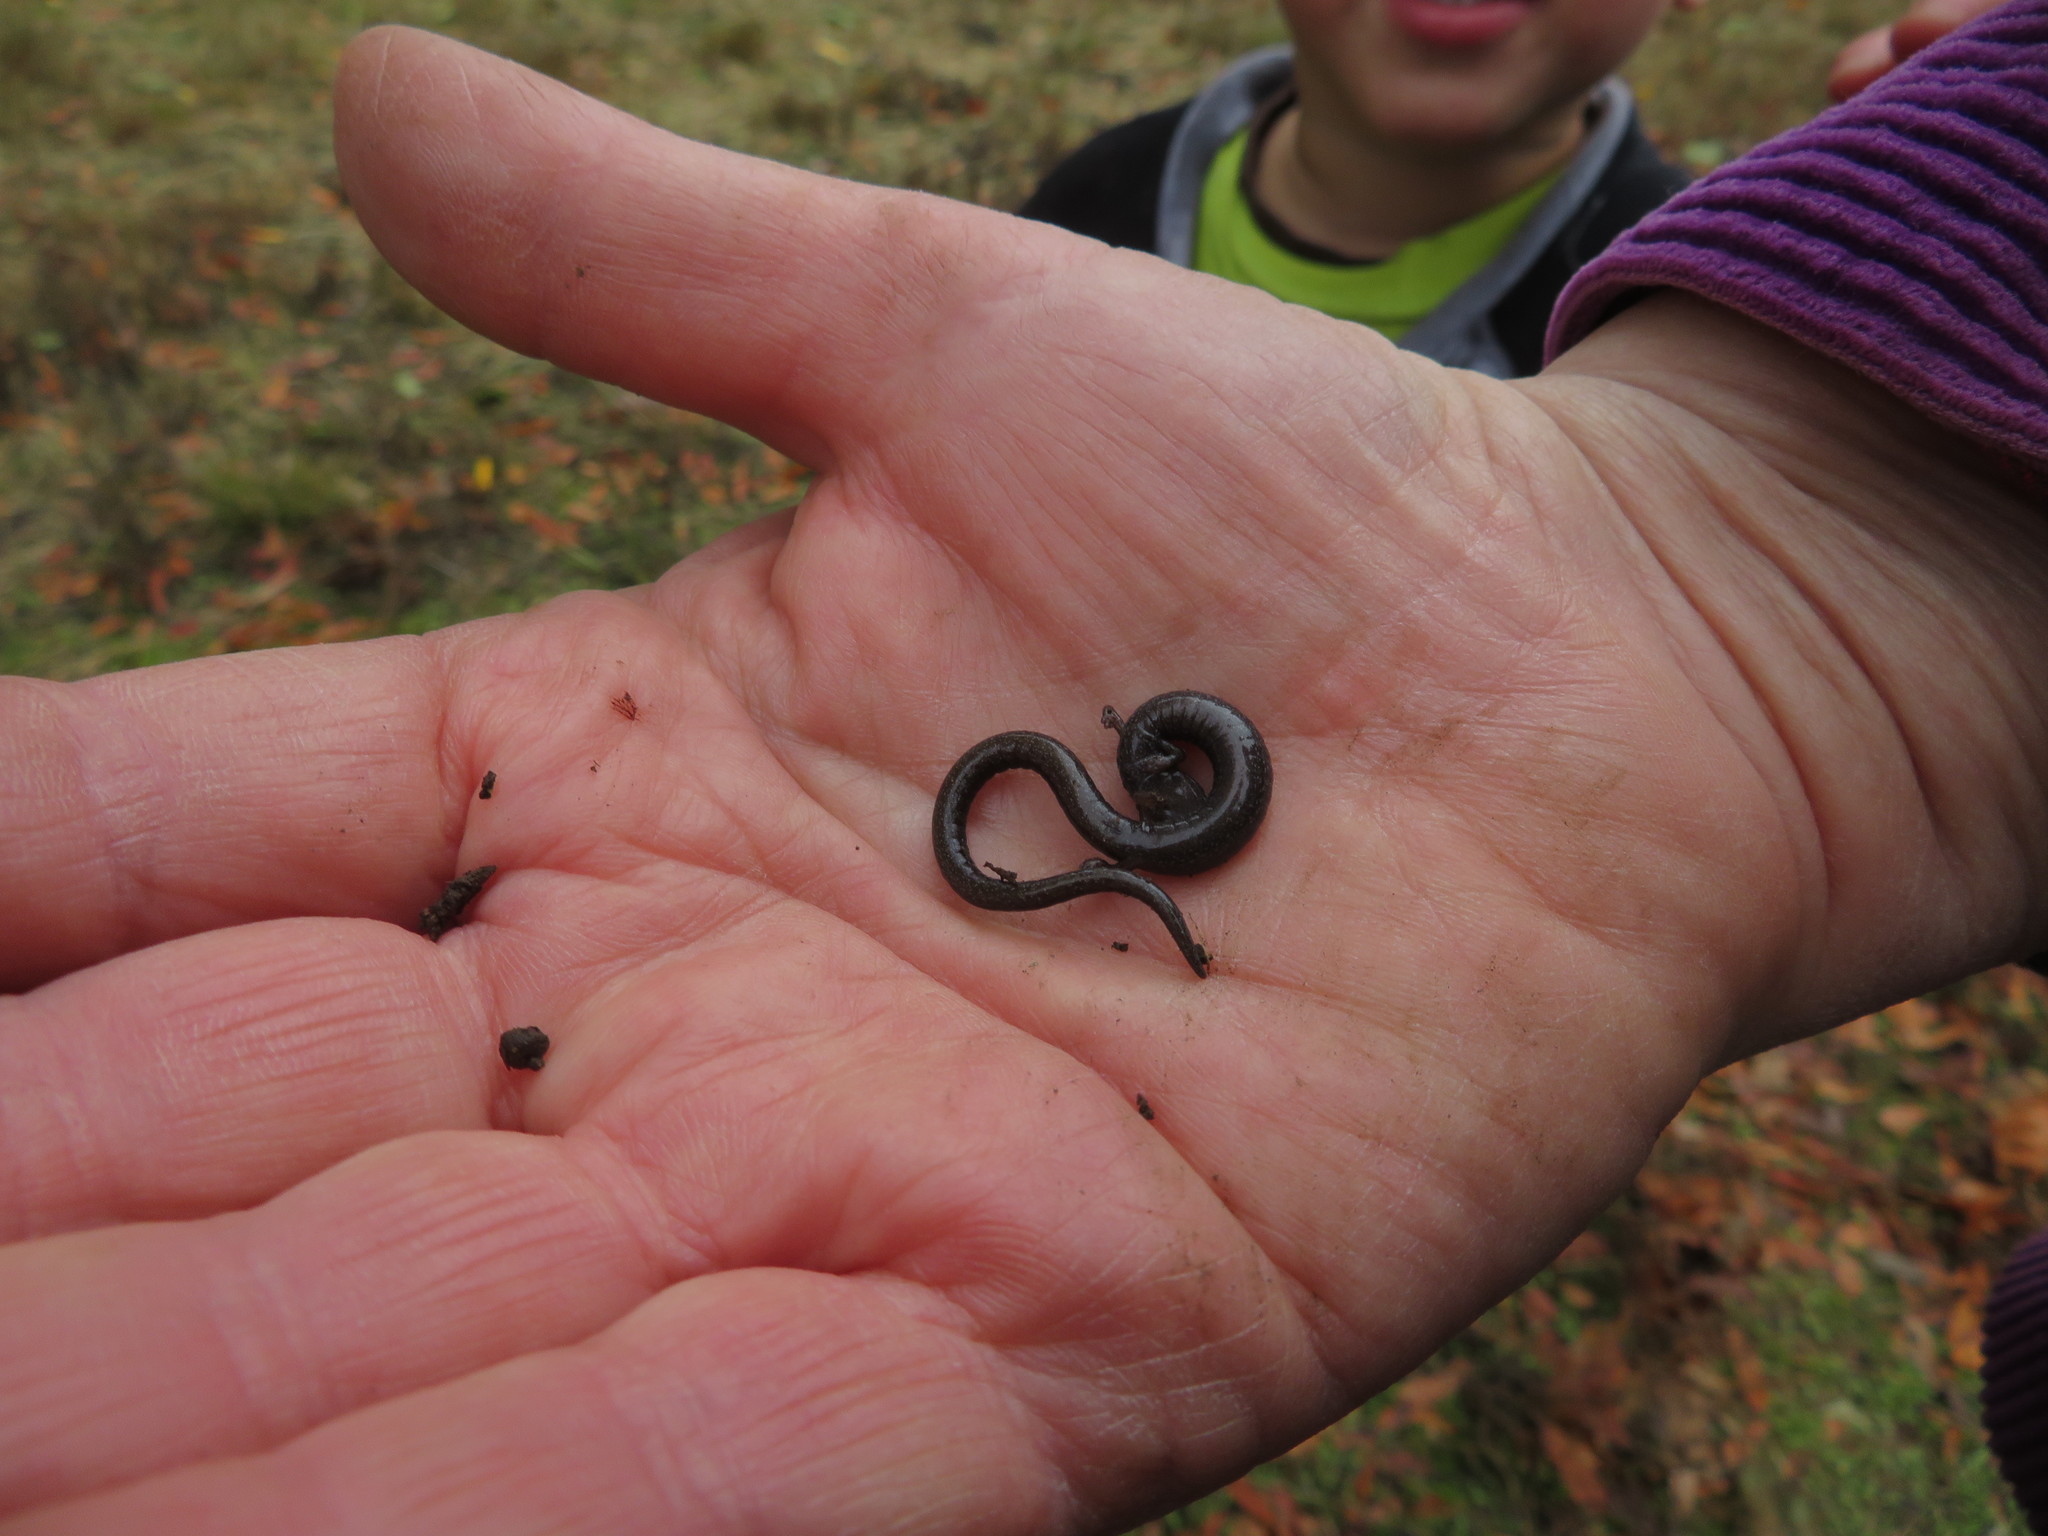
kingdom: Animalia
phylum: Chordata
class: Amphibia
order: Caudata
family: Plethodontidae
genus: Batrachoseps
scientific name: Batrachoseps attenuatus
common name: California slender salamander
